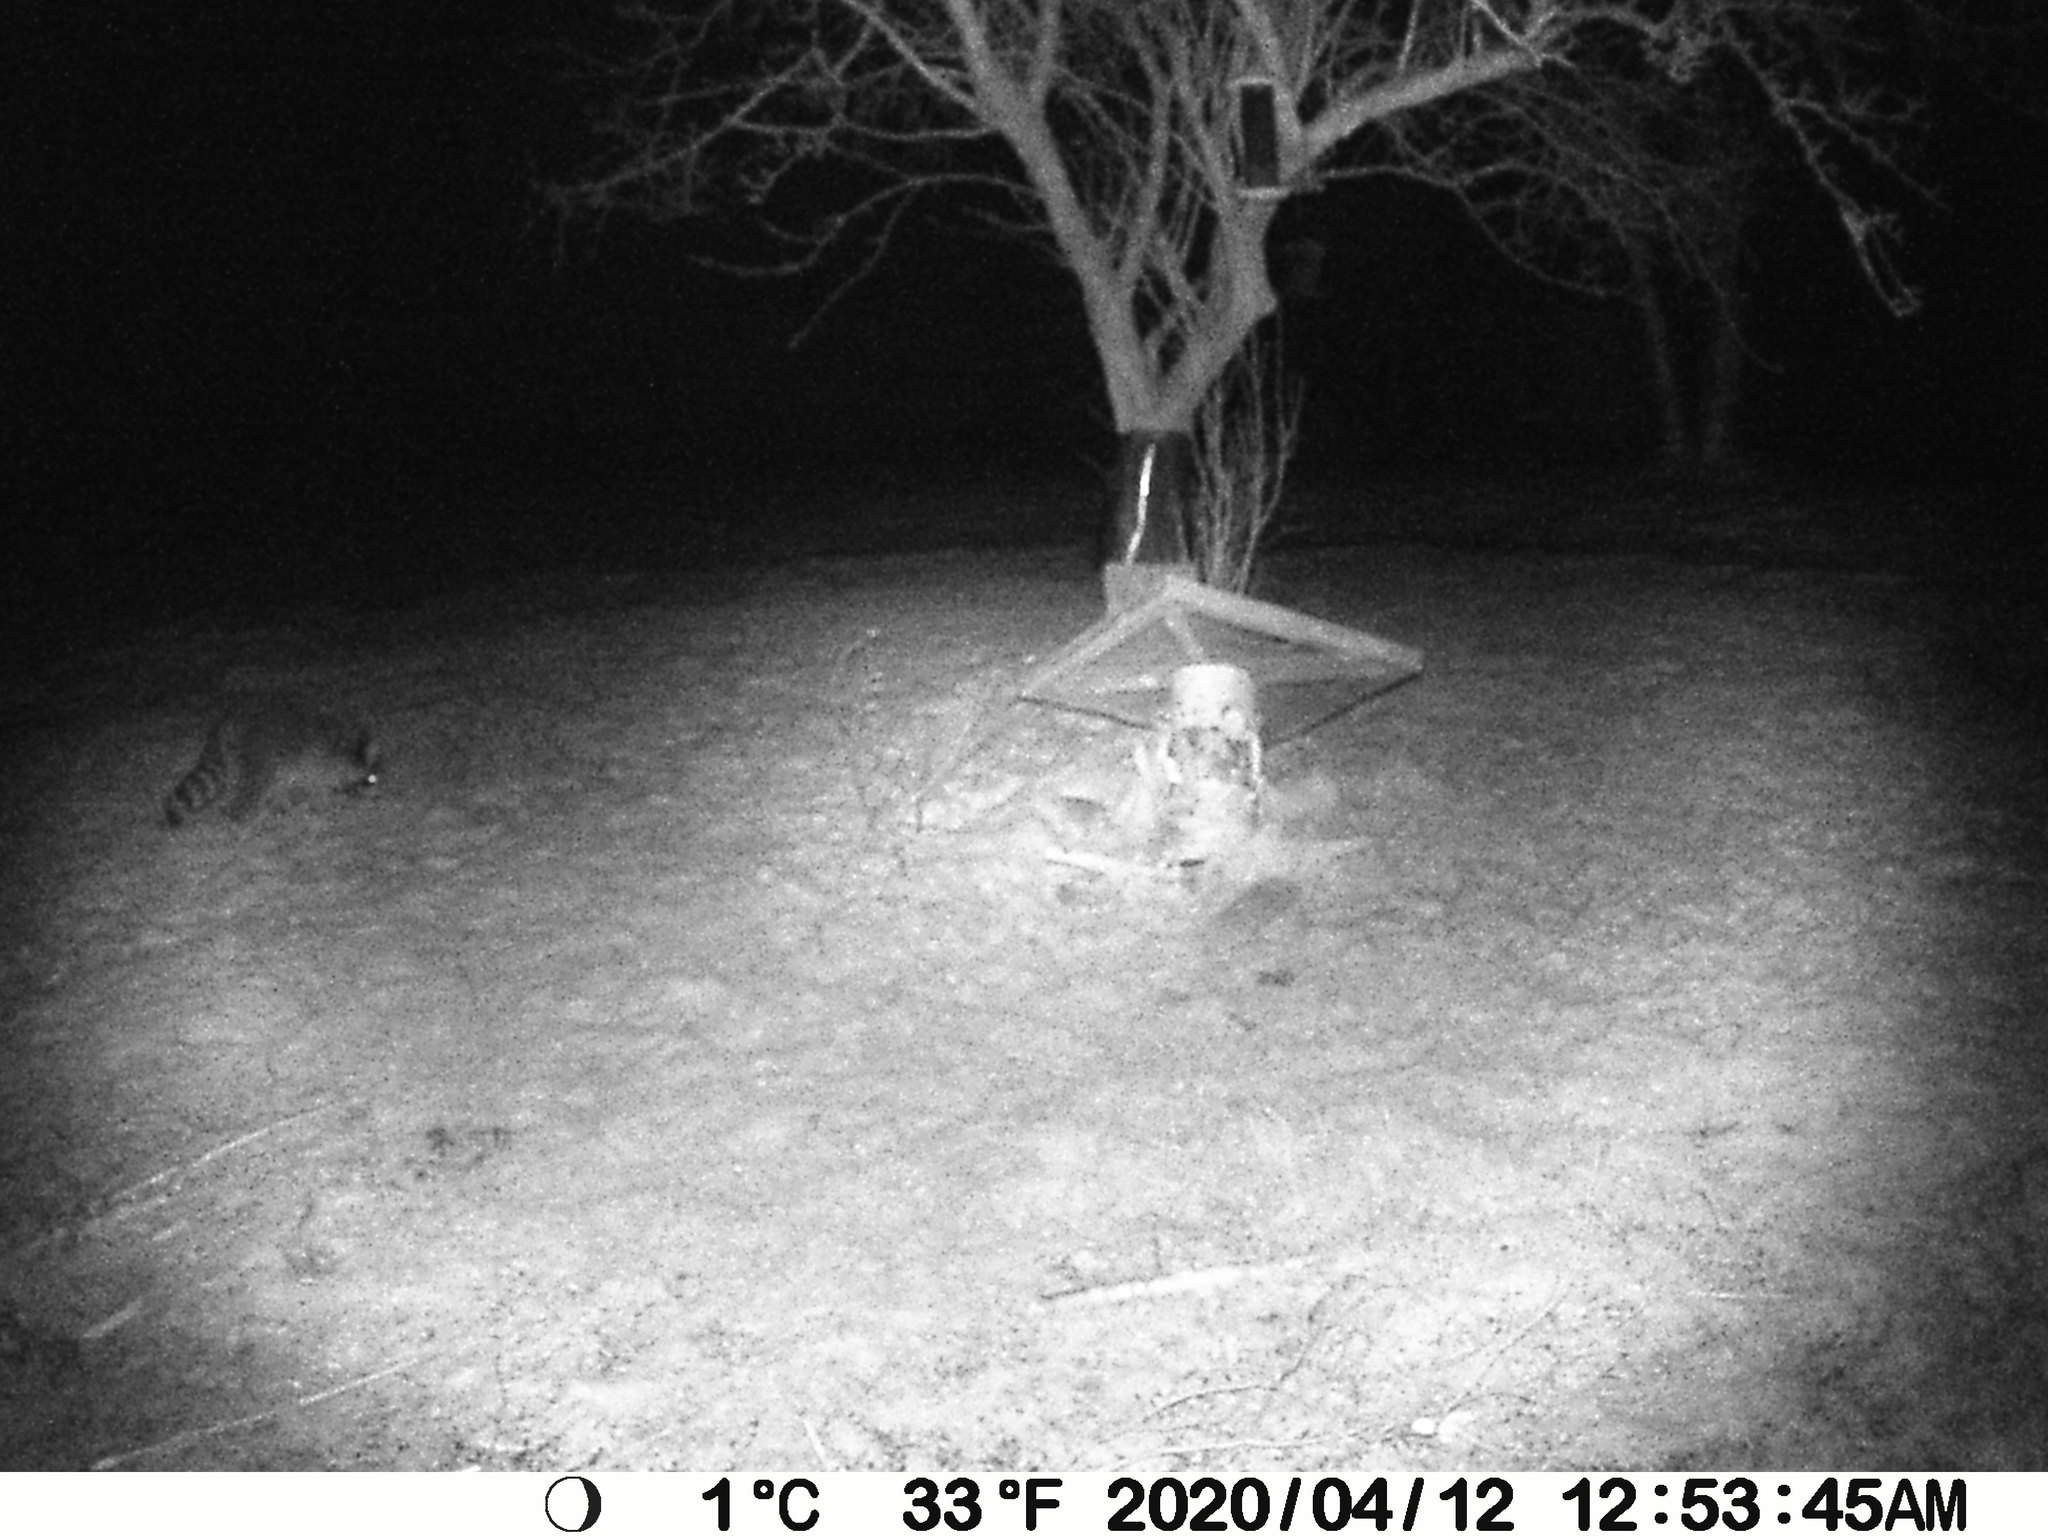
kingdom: Animalia
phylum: Chordata
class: Mammalia
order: Carnivora
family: Procyonidae
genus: Procyon
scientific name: Procyon lotor
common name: Raccoon
